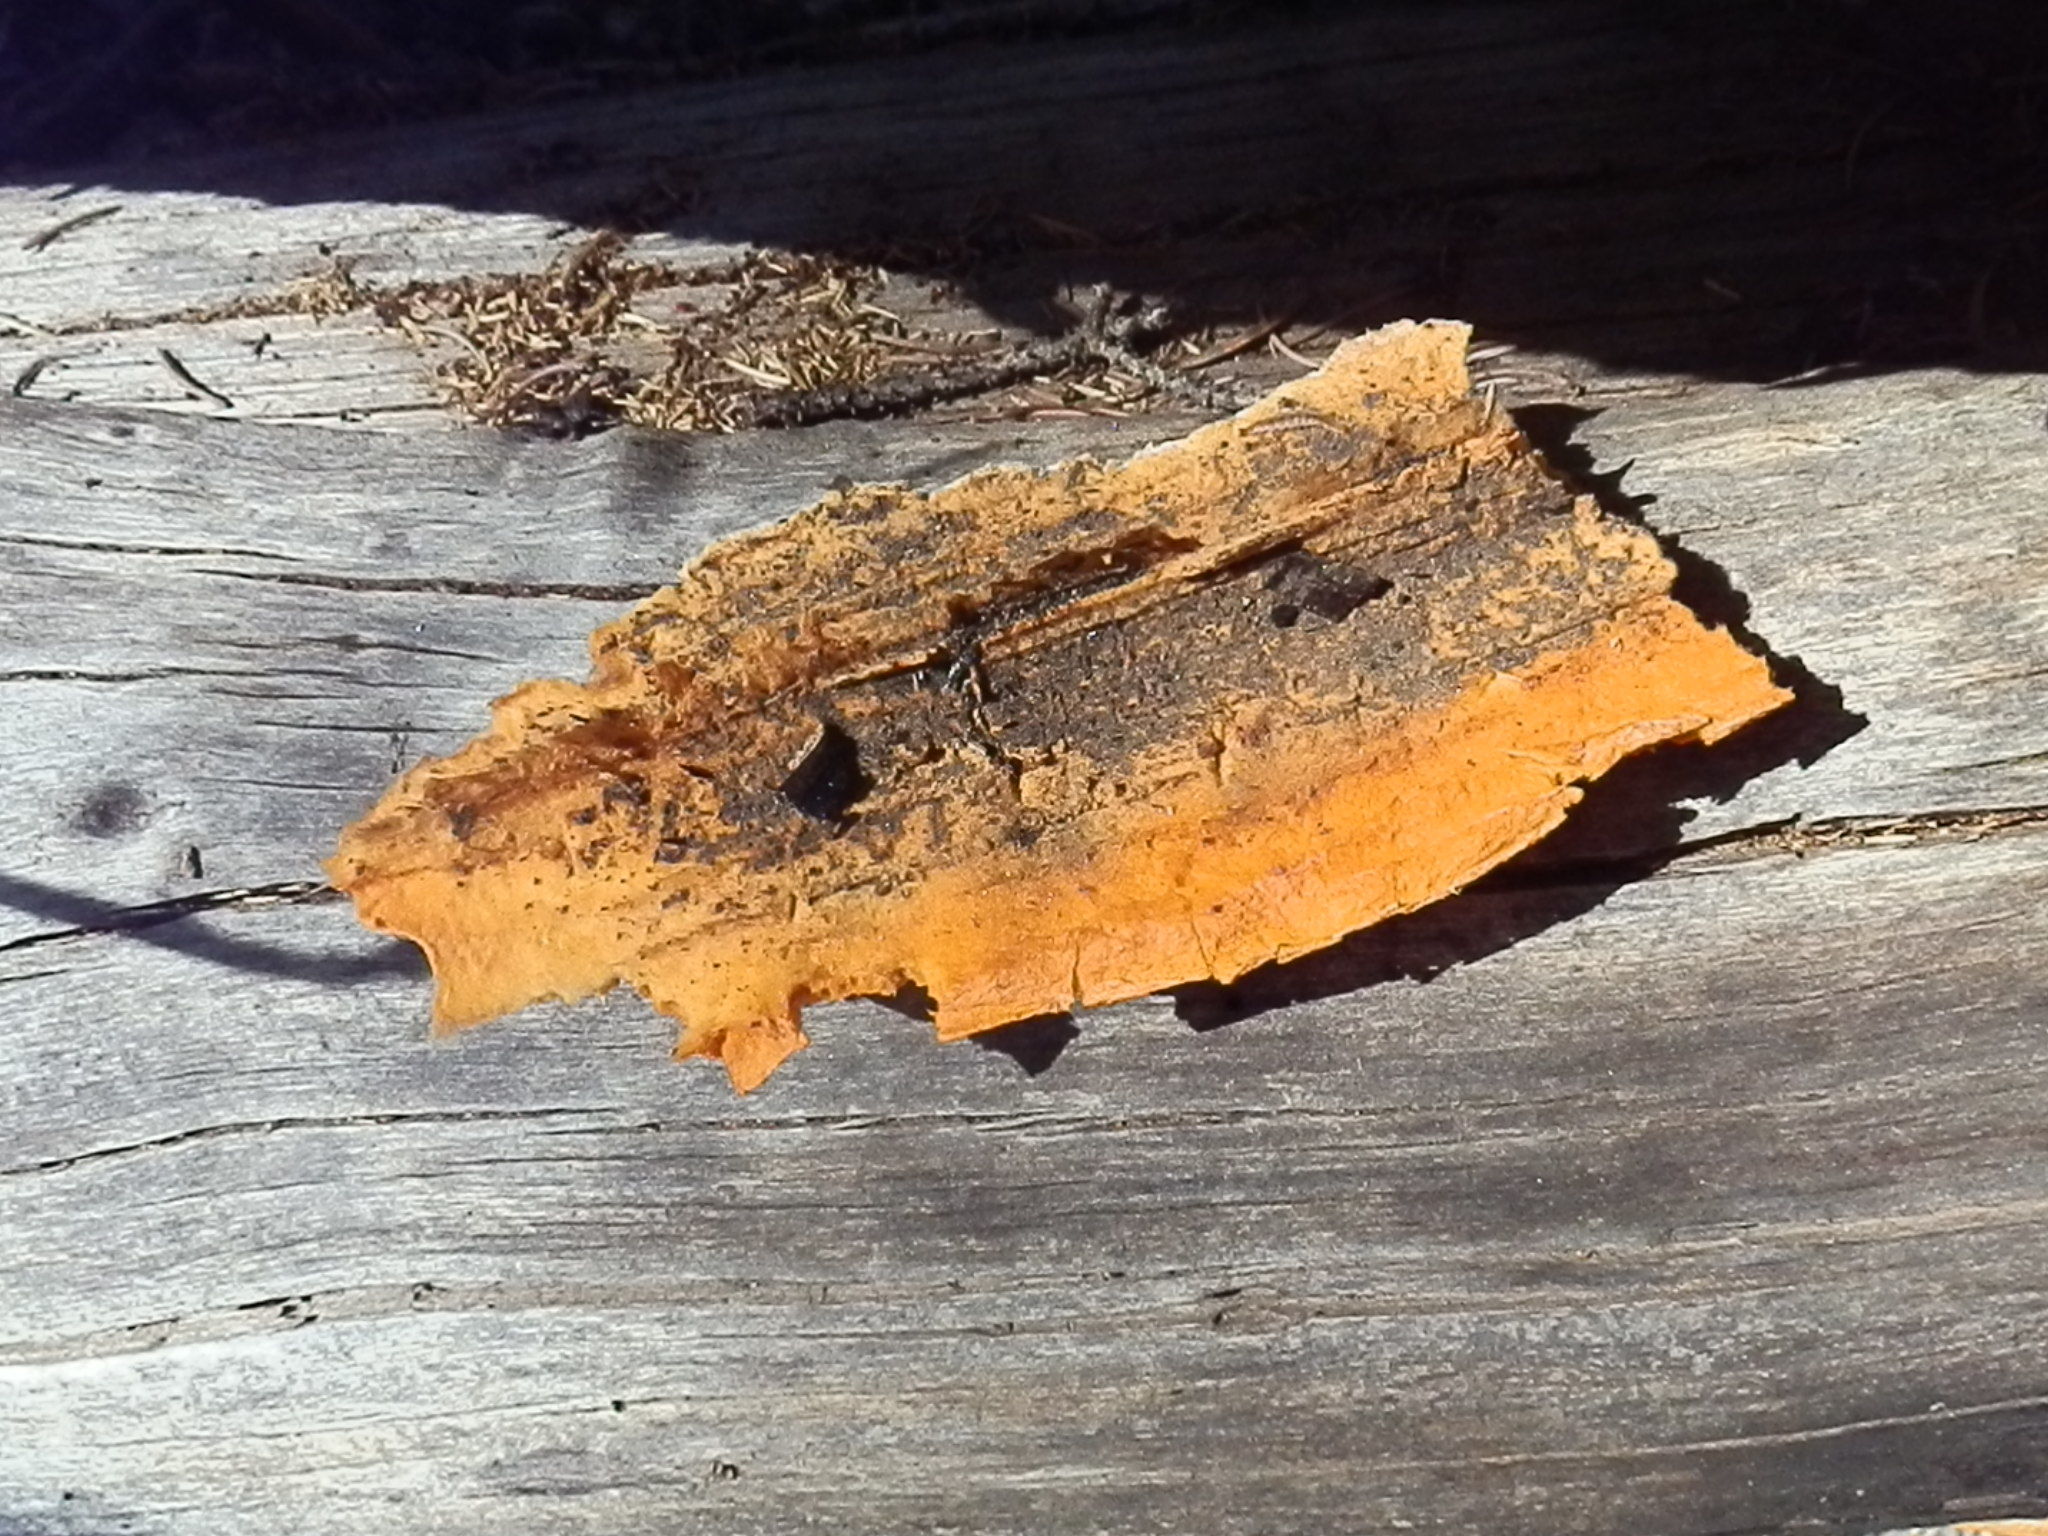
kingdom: Fungi
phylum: Basidiomycota
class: Agaricomycetes
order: Polyporales
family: Pycnoporellaceae
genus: Pycnoporellus
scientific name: Pycnoporellus alboluteus
